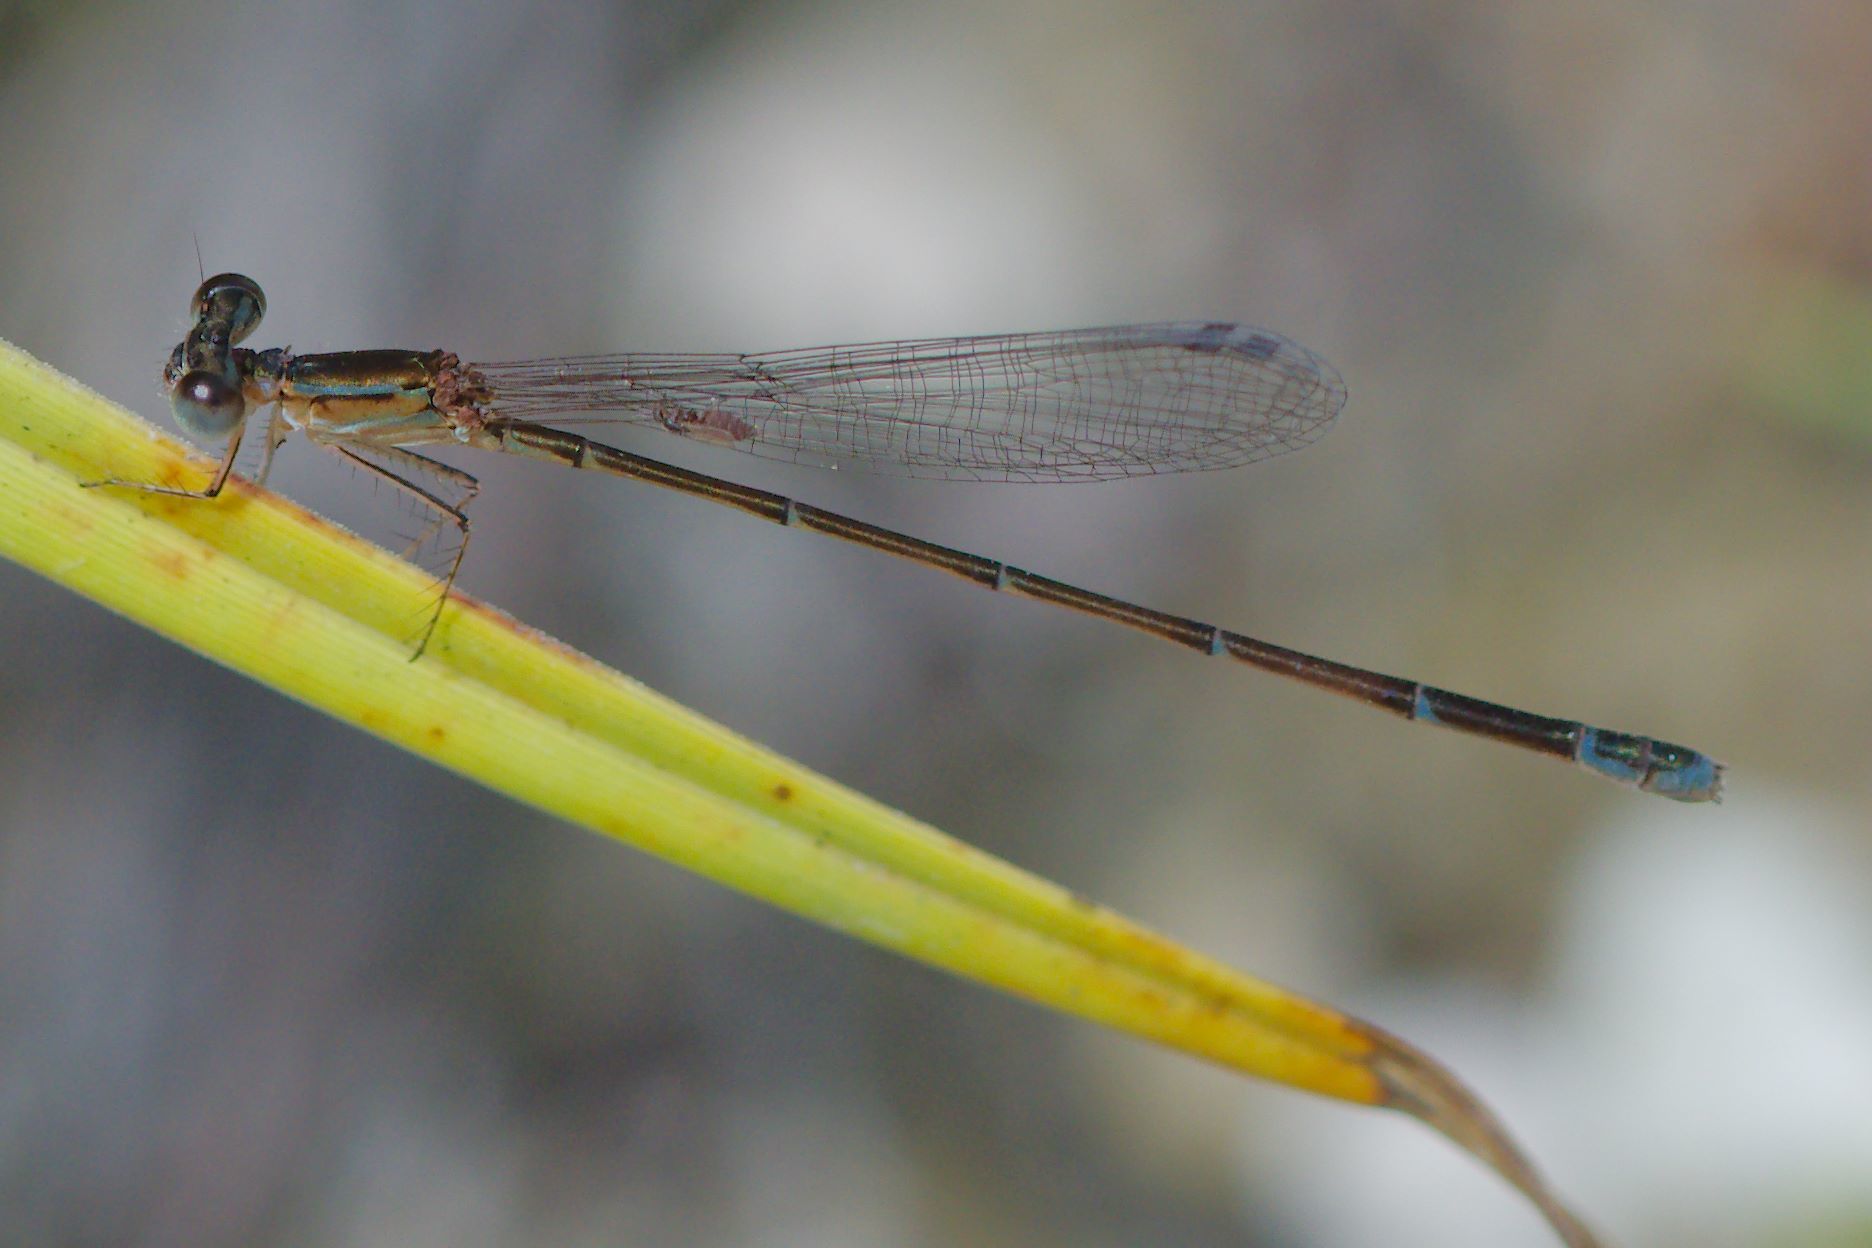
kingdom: Animalia
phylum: Arthropoda
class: Insecta
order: Odonata
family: Coenagrionidae
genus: Nehalennia
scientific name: Nehalennia pallidula
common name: Everglades sprite
